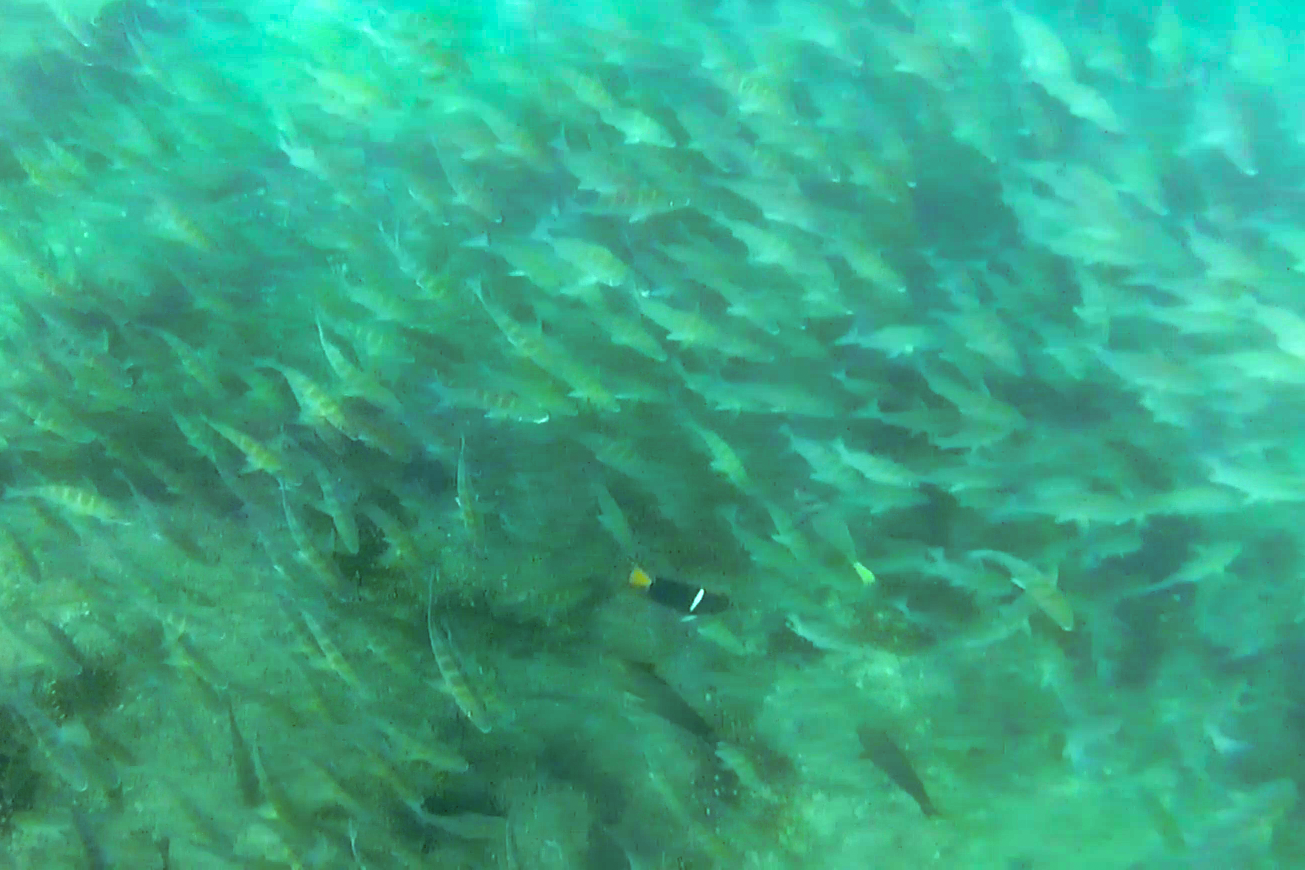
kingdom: Animalia
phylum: Chordata
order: Perciformes
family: Pomacanthidae
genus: Holacanthus
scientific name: Holacanthus passer
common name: King angelfish
